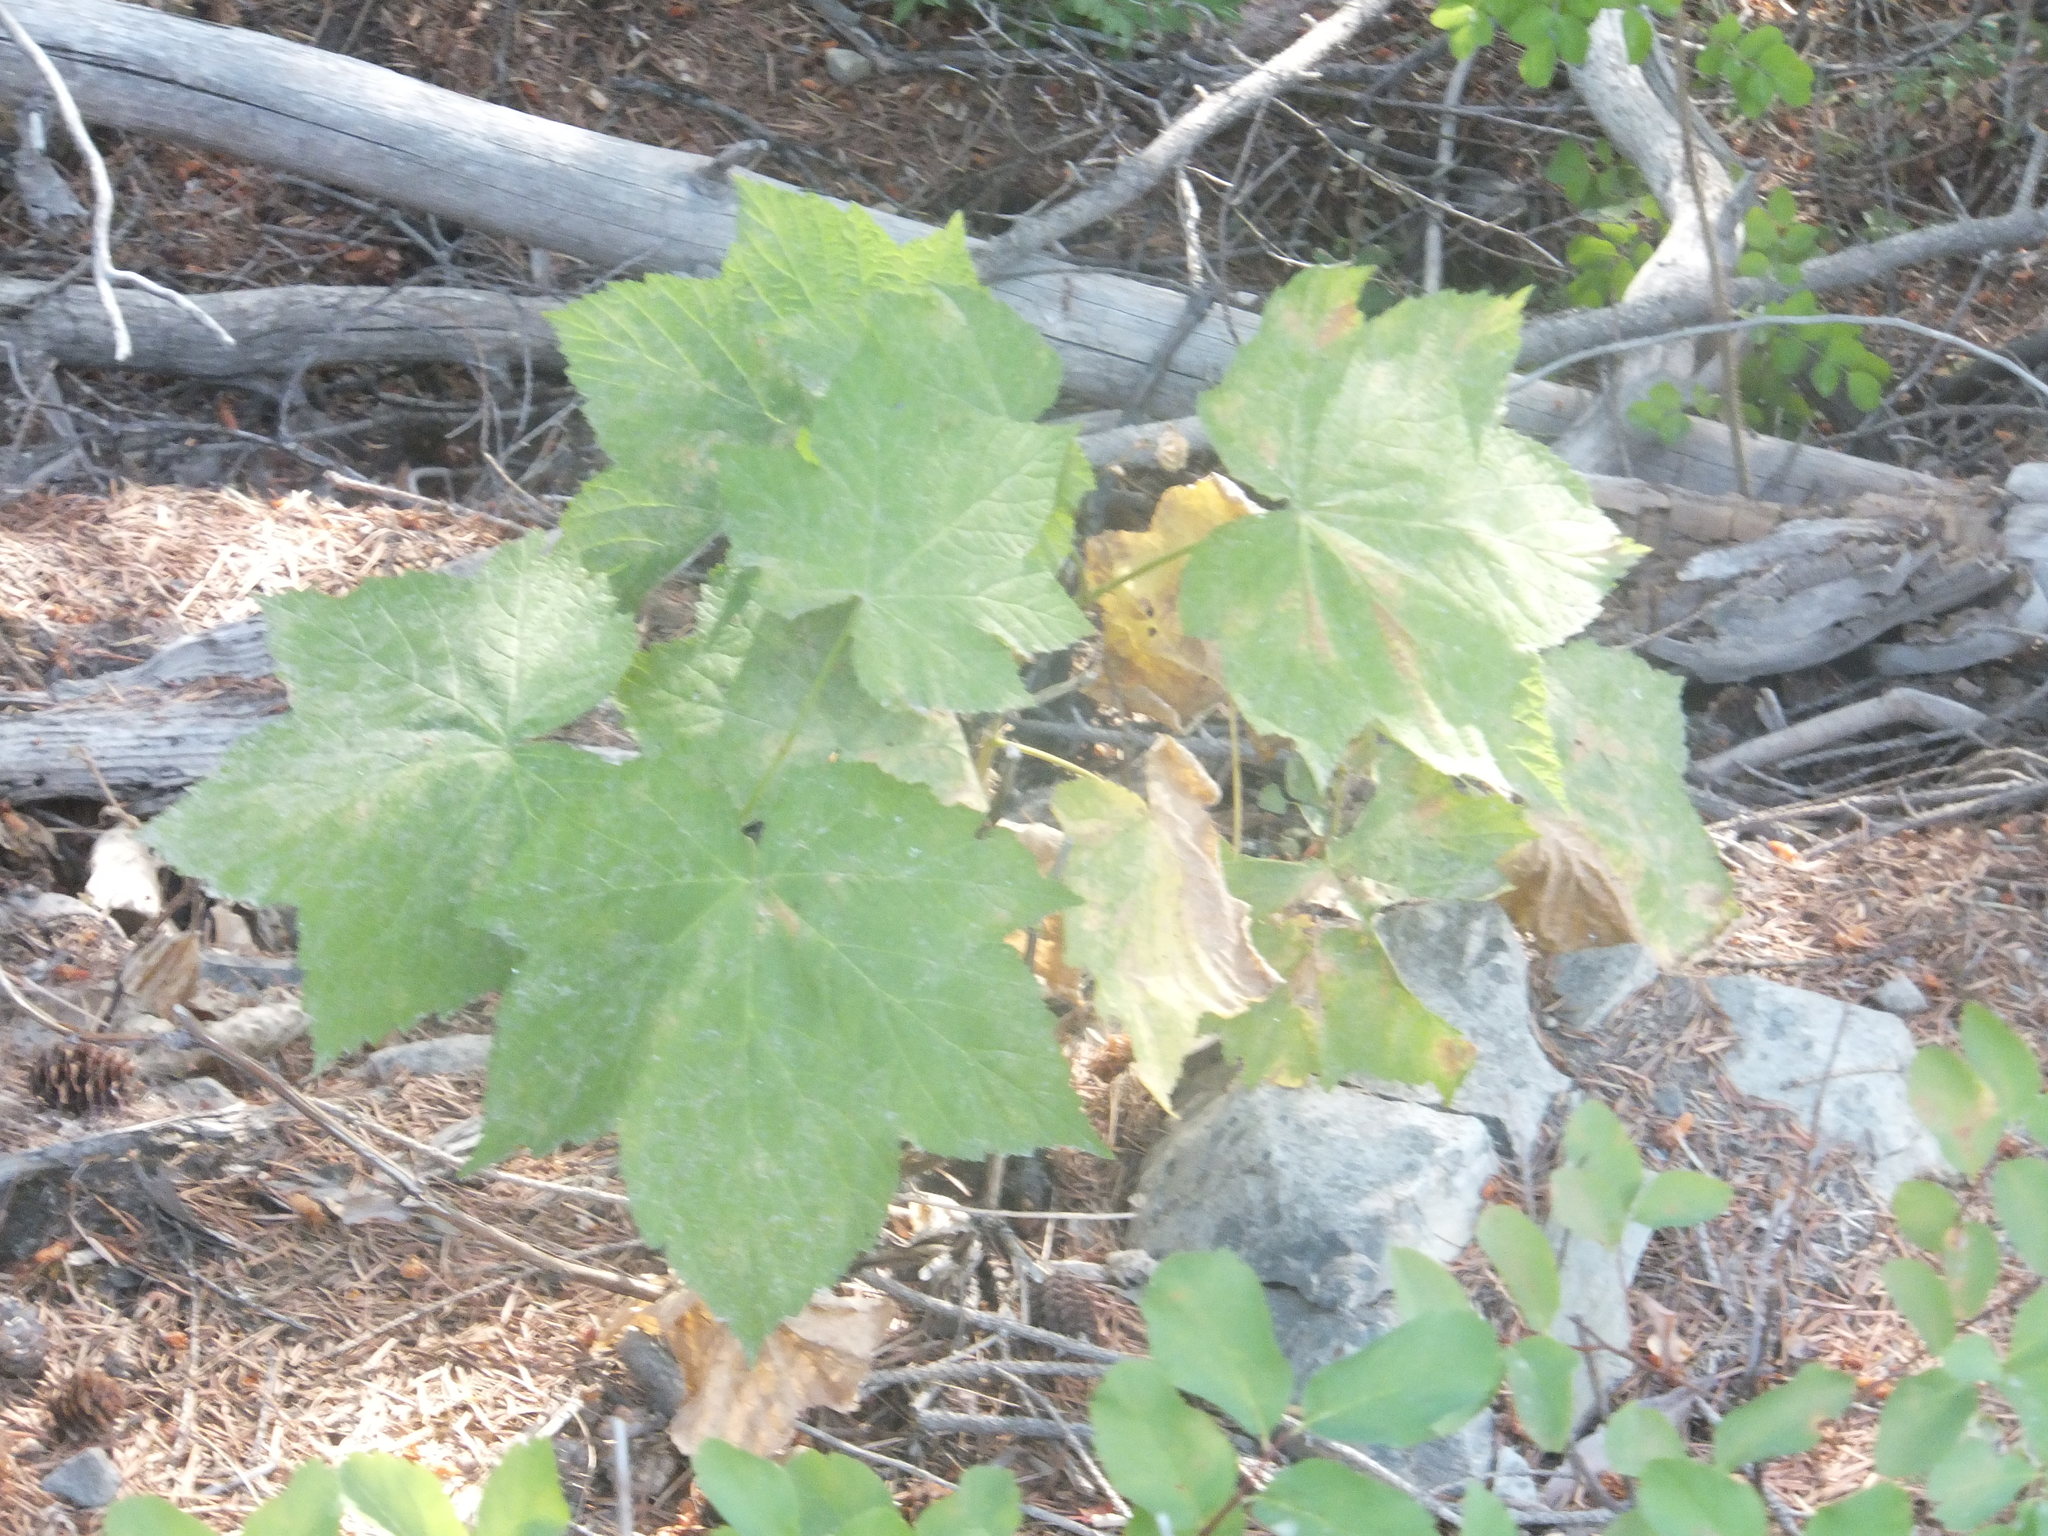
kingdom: Plantae
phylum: Tracheophyta
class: Magnoliopsida
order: Rosales
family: Rosaceae
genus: Rubus
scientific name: Rubus parviflorus
